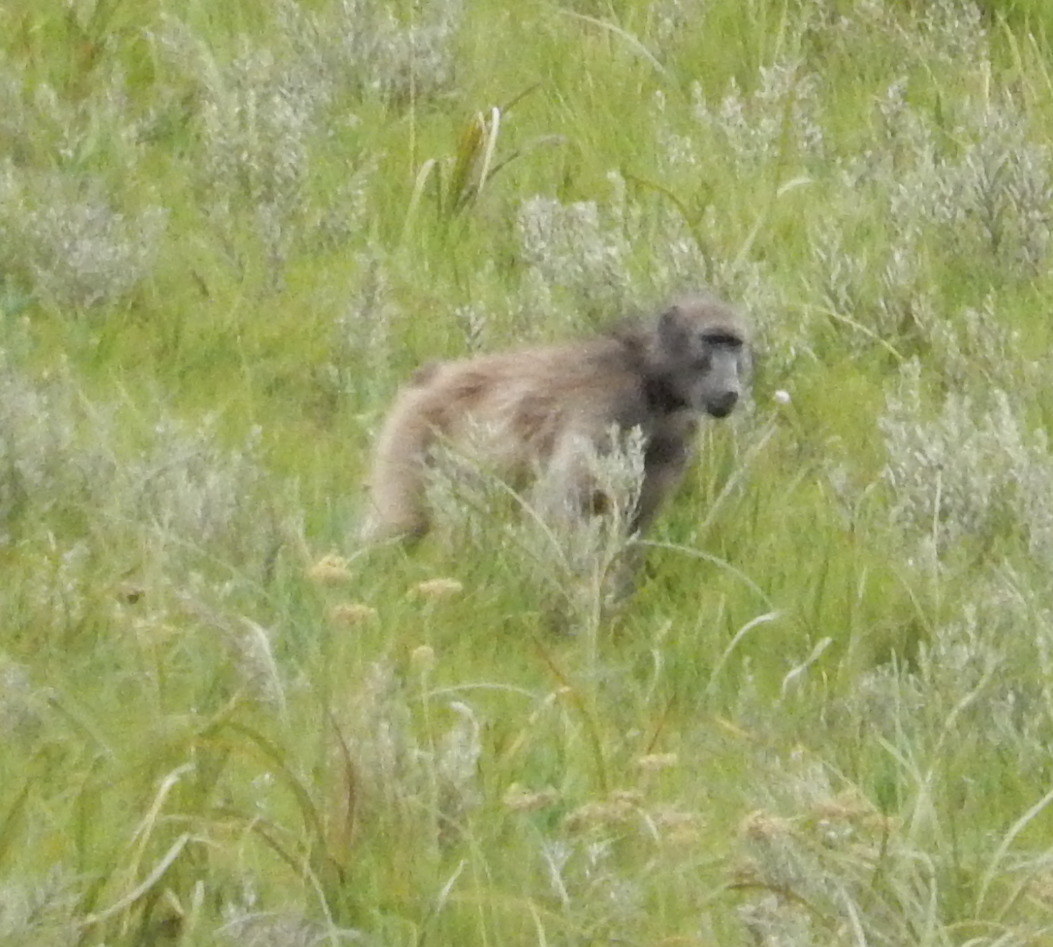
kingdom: Animalia
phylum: Chordata
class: Mammalia
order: Primates
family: Cercopithecidae
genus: Papio
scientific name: Papio ursinus
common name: Chacma baboon
